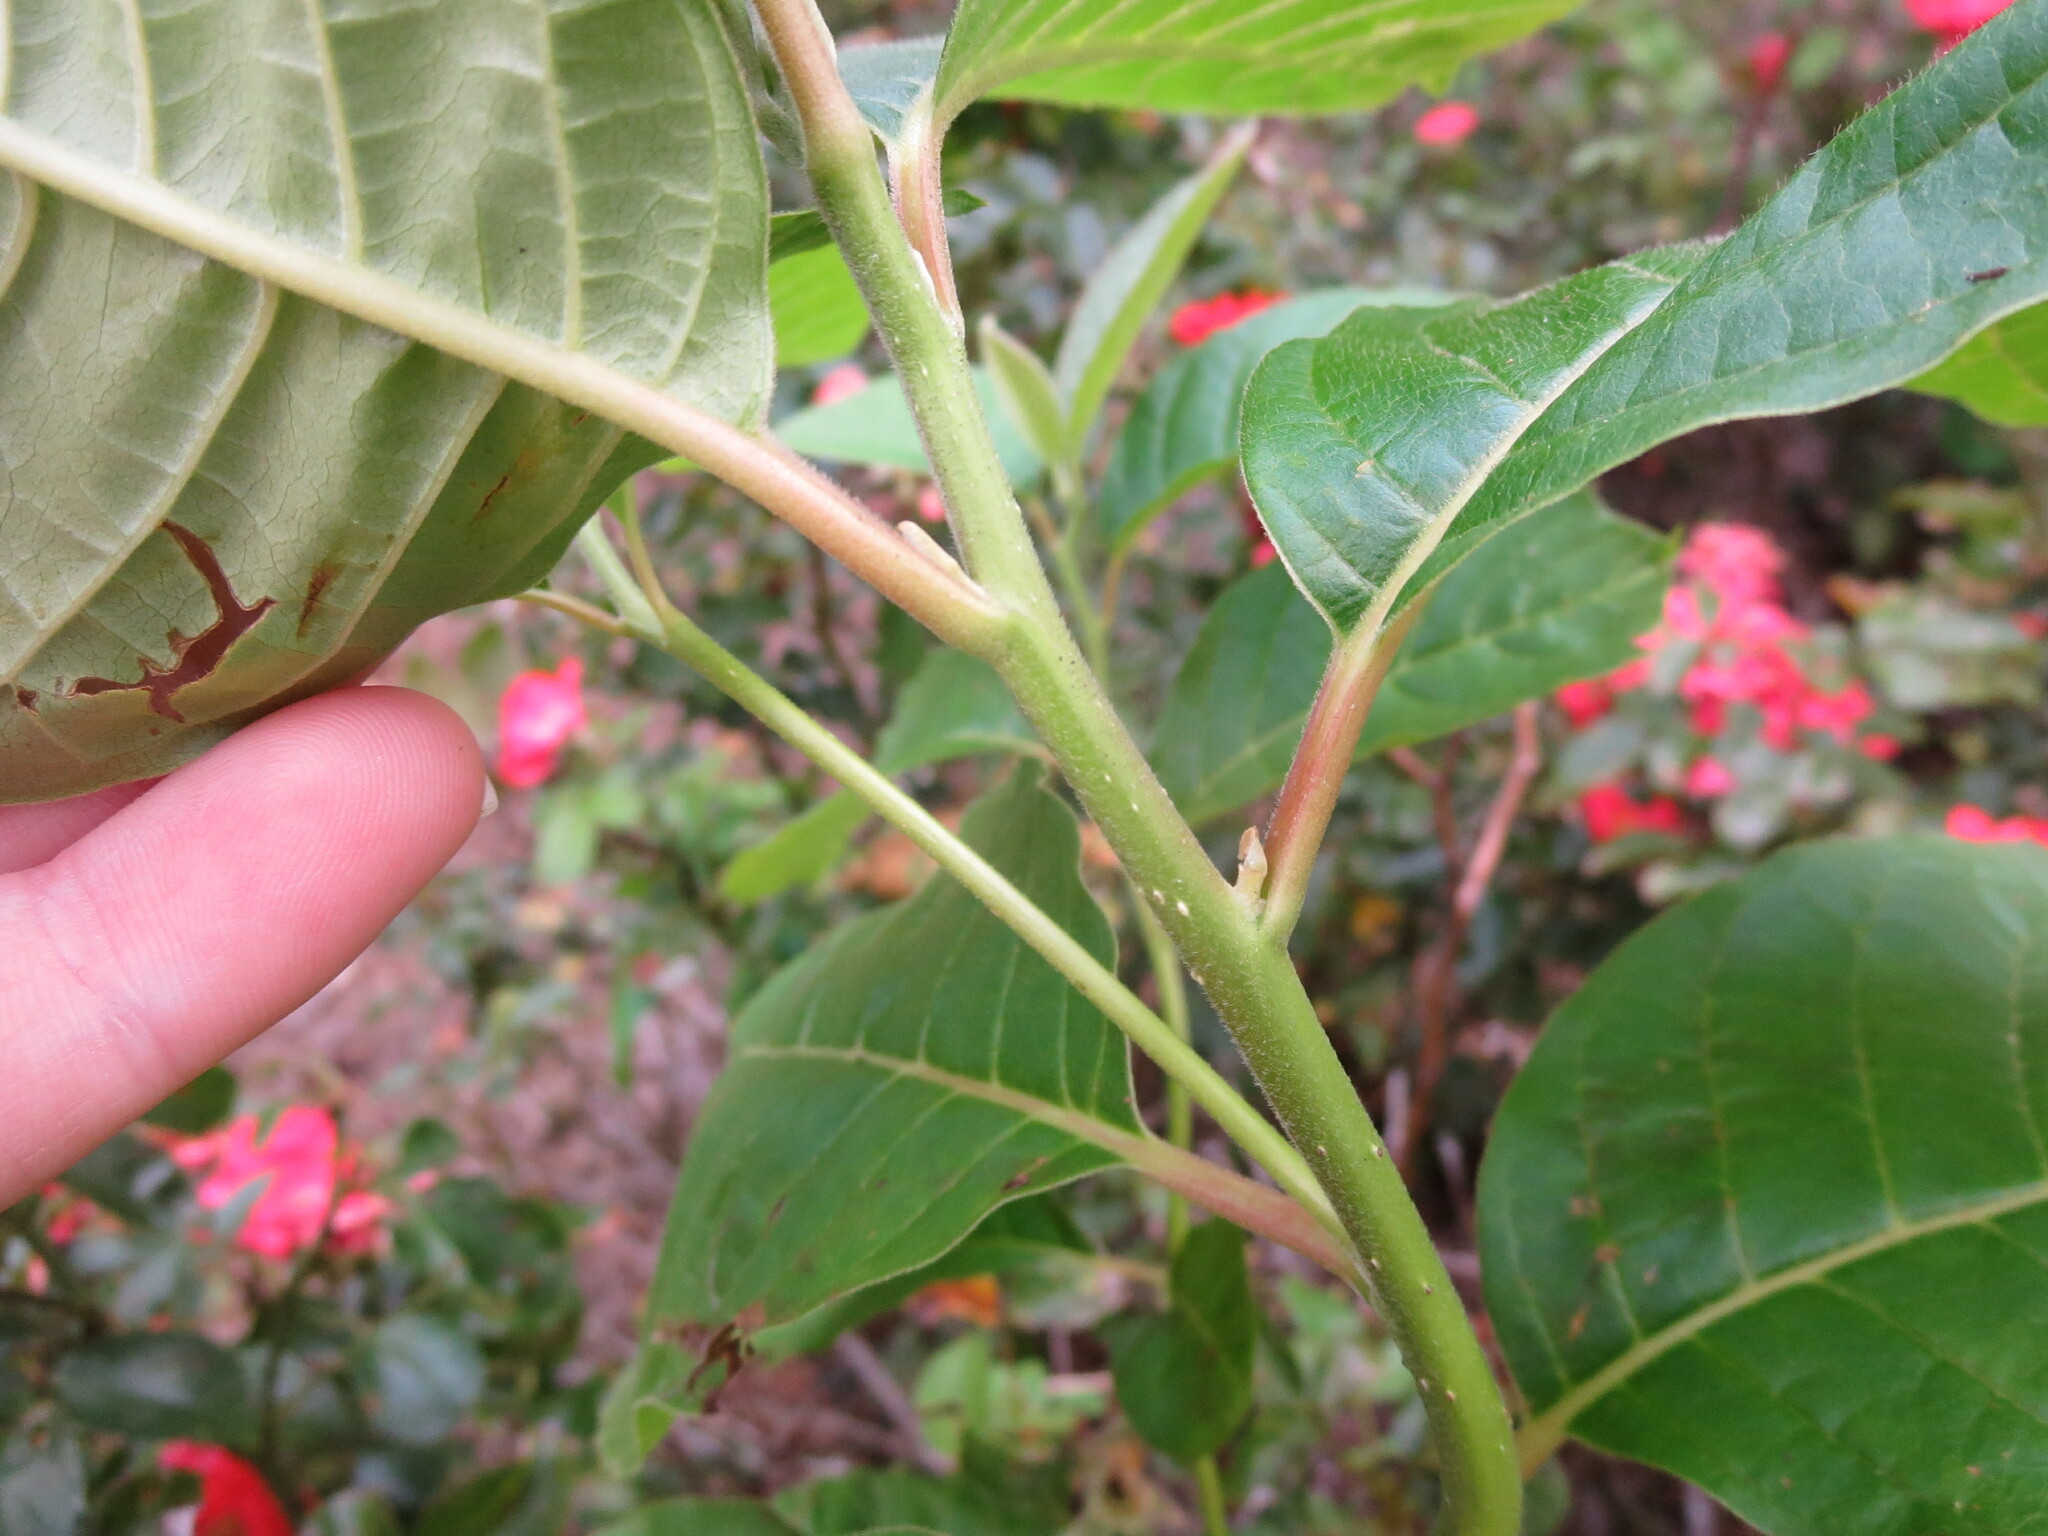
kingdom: Plantae
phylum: Tracheophyta
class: Magnoliopsida
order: Cornales
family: Nyssaceae
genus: Camptotheca
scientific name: Camptotheca acuminata
